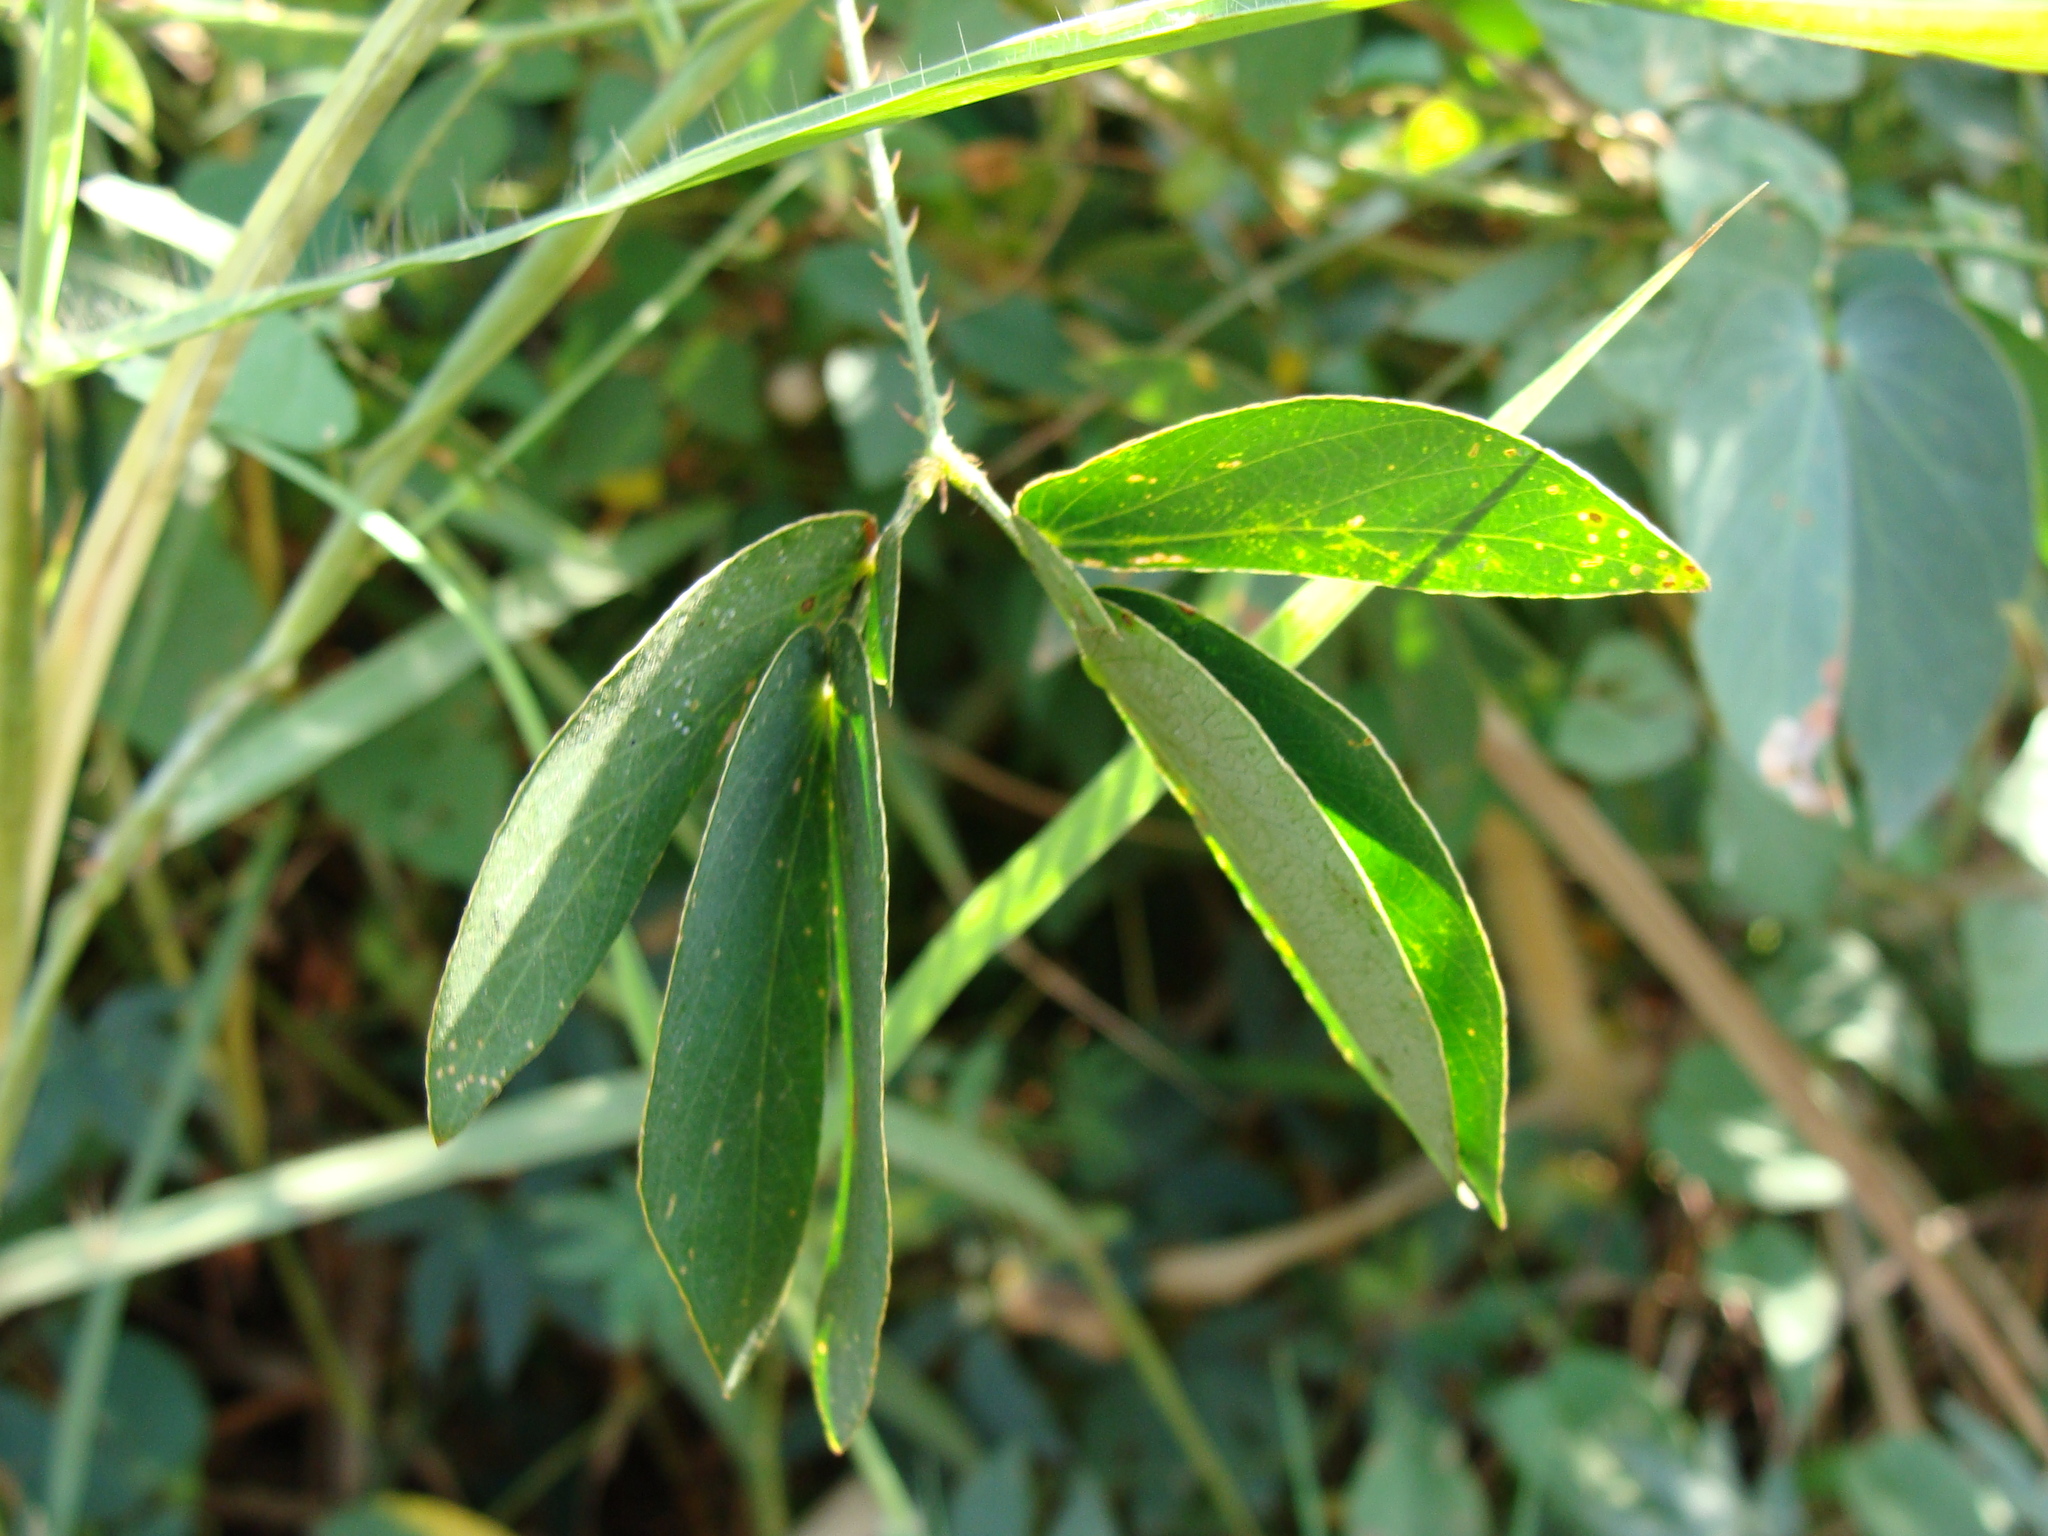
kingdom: Plantae
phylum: Tracheophyta
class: Magnoliopsida
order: Fabales
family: Fabaceae
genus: Mimosa
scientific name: Mimosa albida
